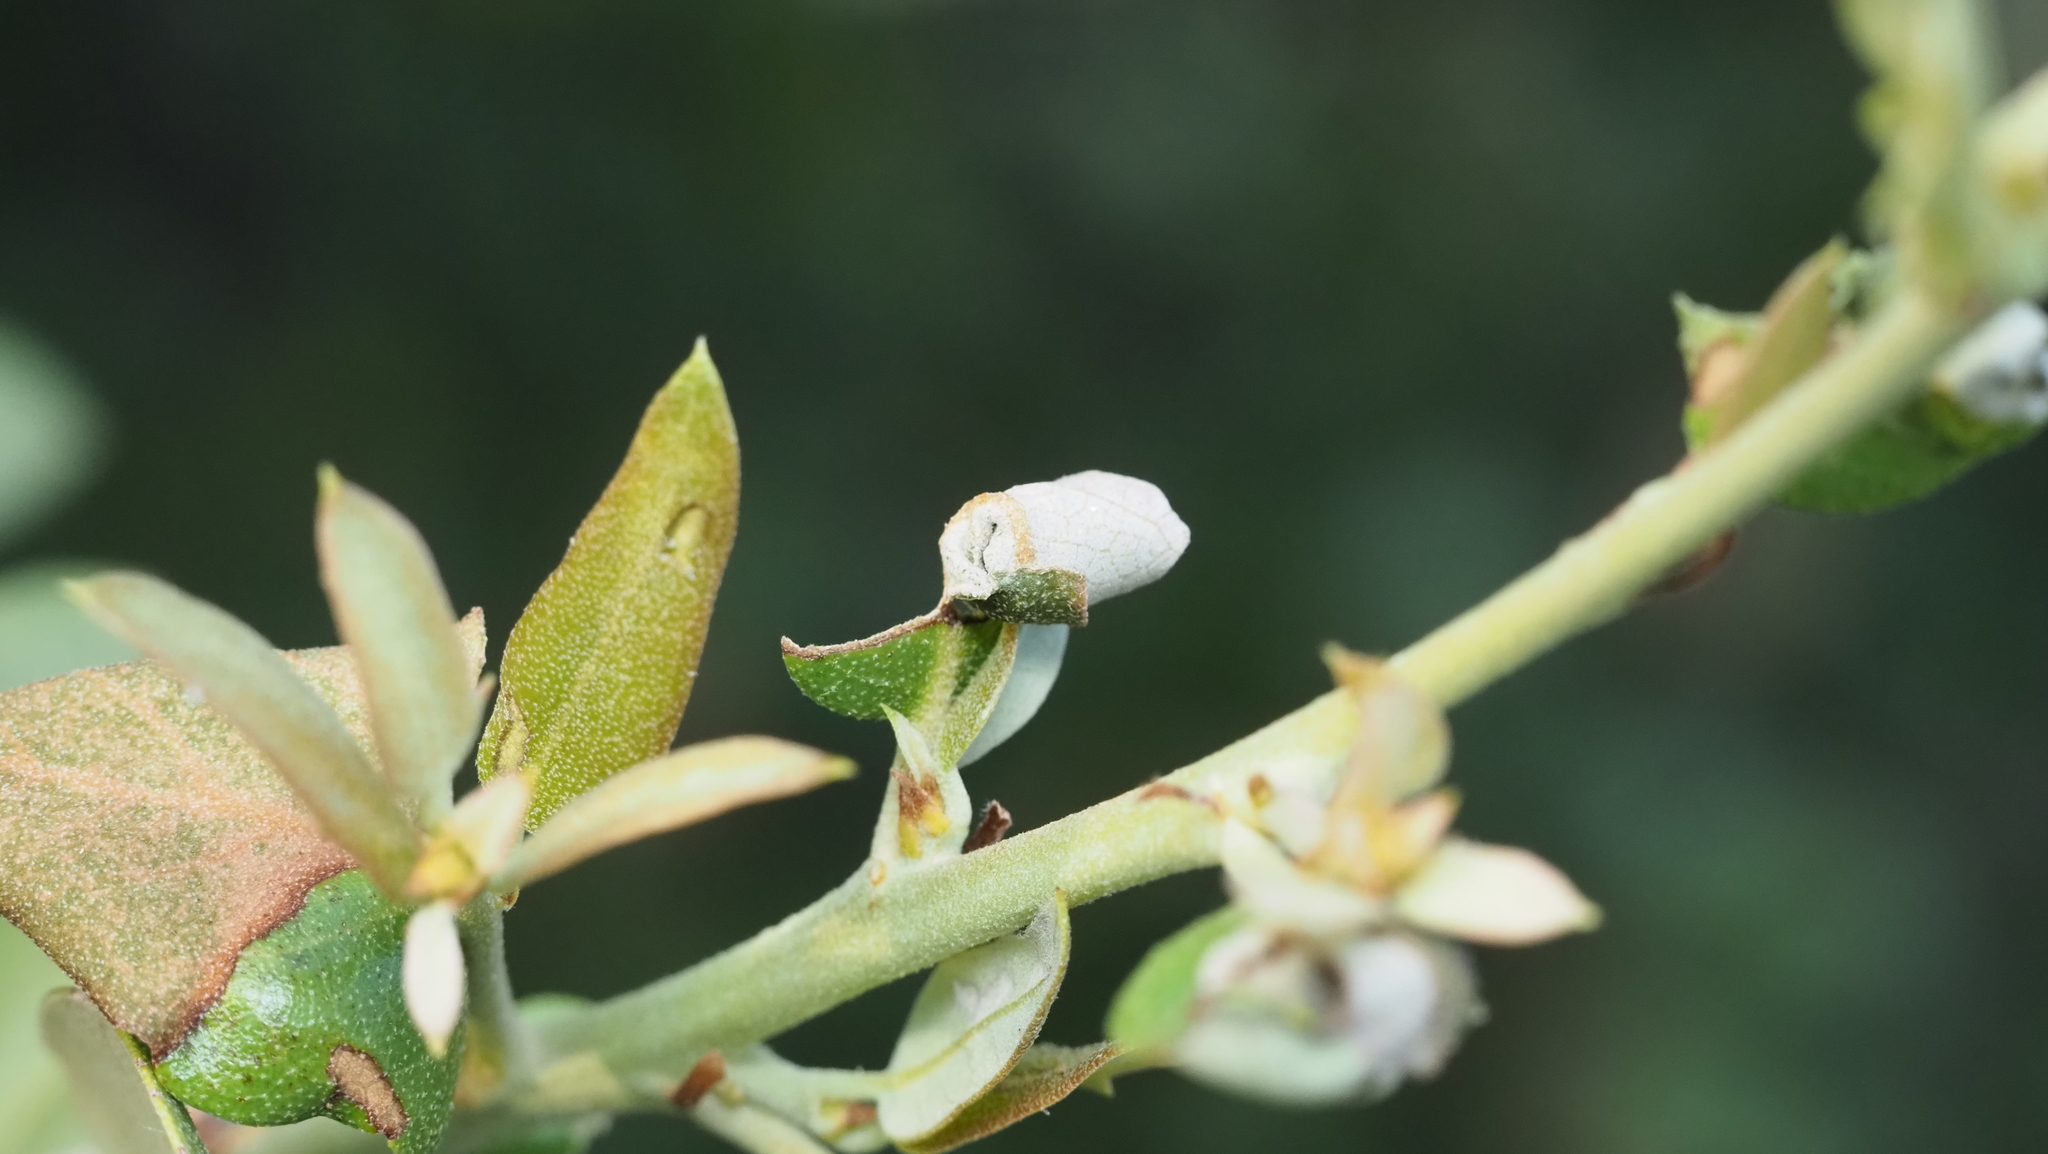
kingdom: Animalia
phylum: Arthropoda
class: Insecta
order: Coleoptera
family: Attelabidae
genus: Homoeolabus
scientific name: Homoeolabus analis
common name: Oak leaf rolling weevil
